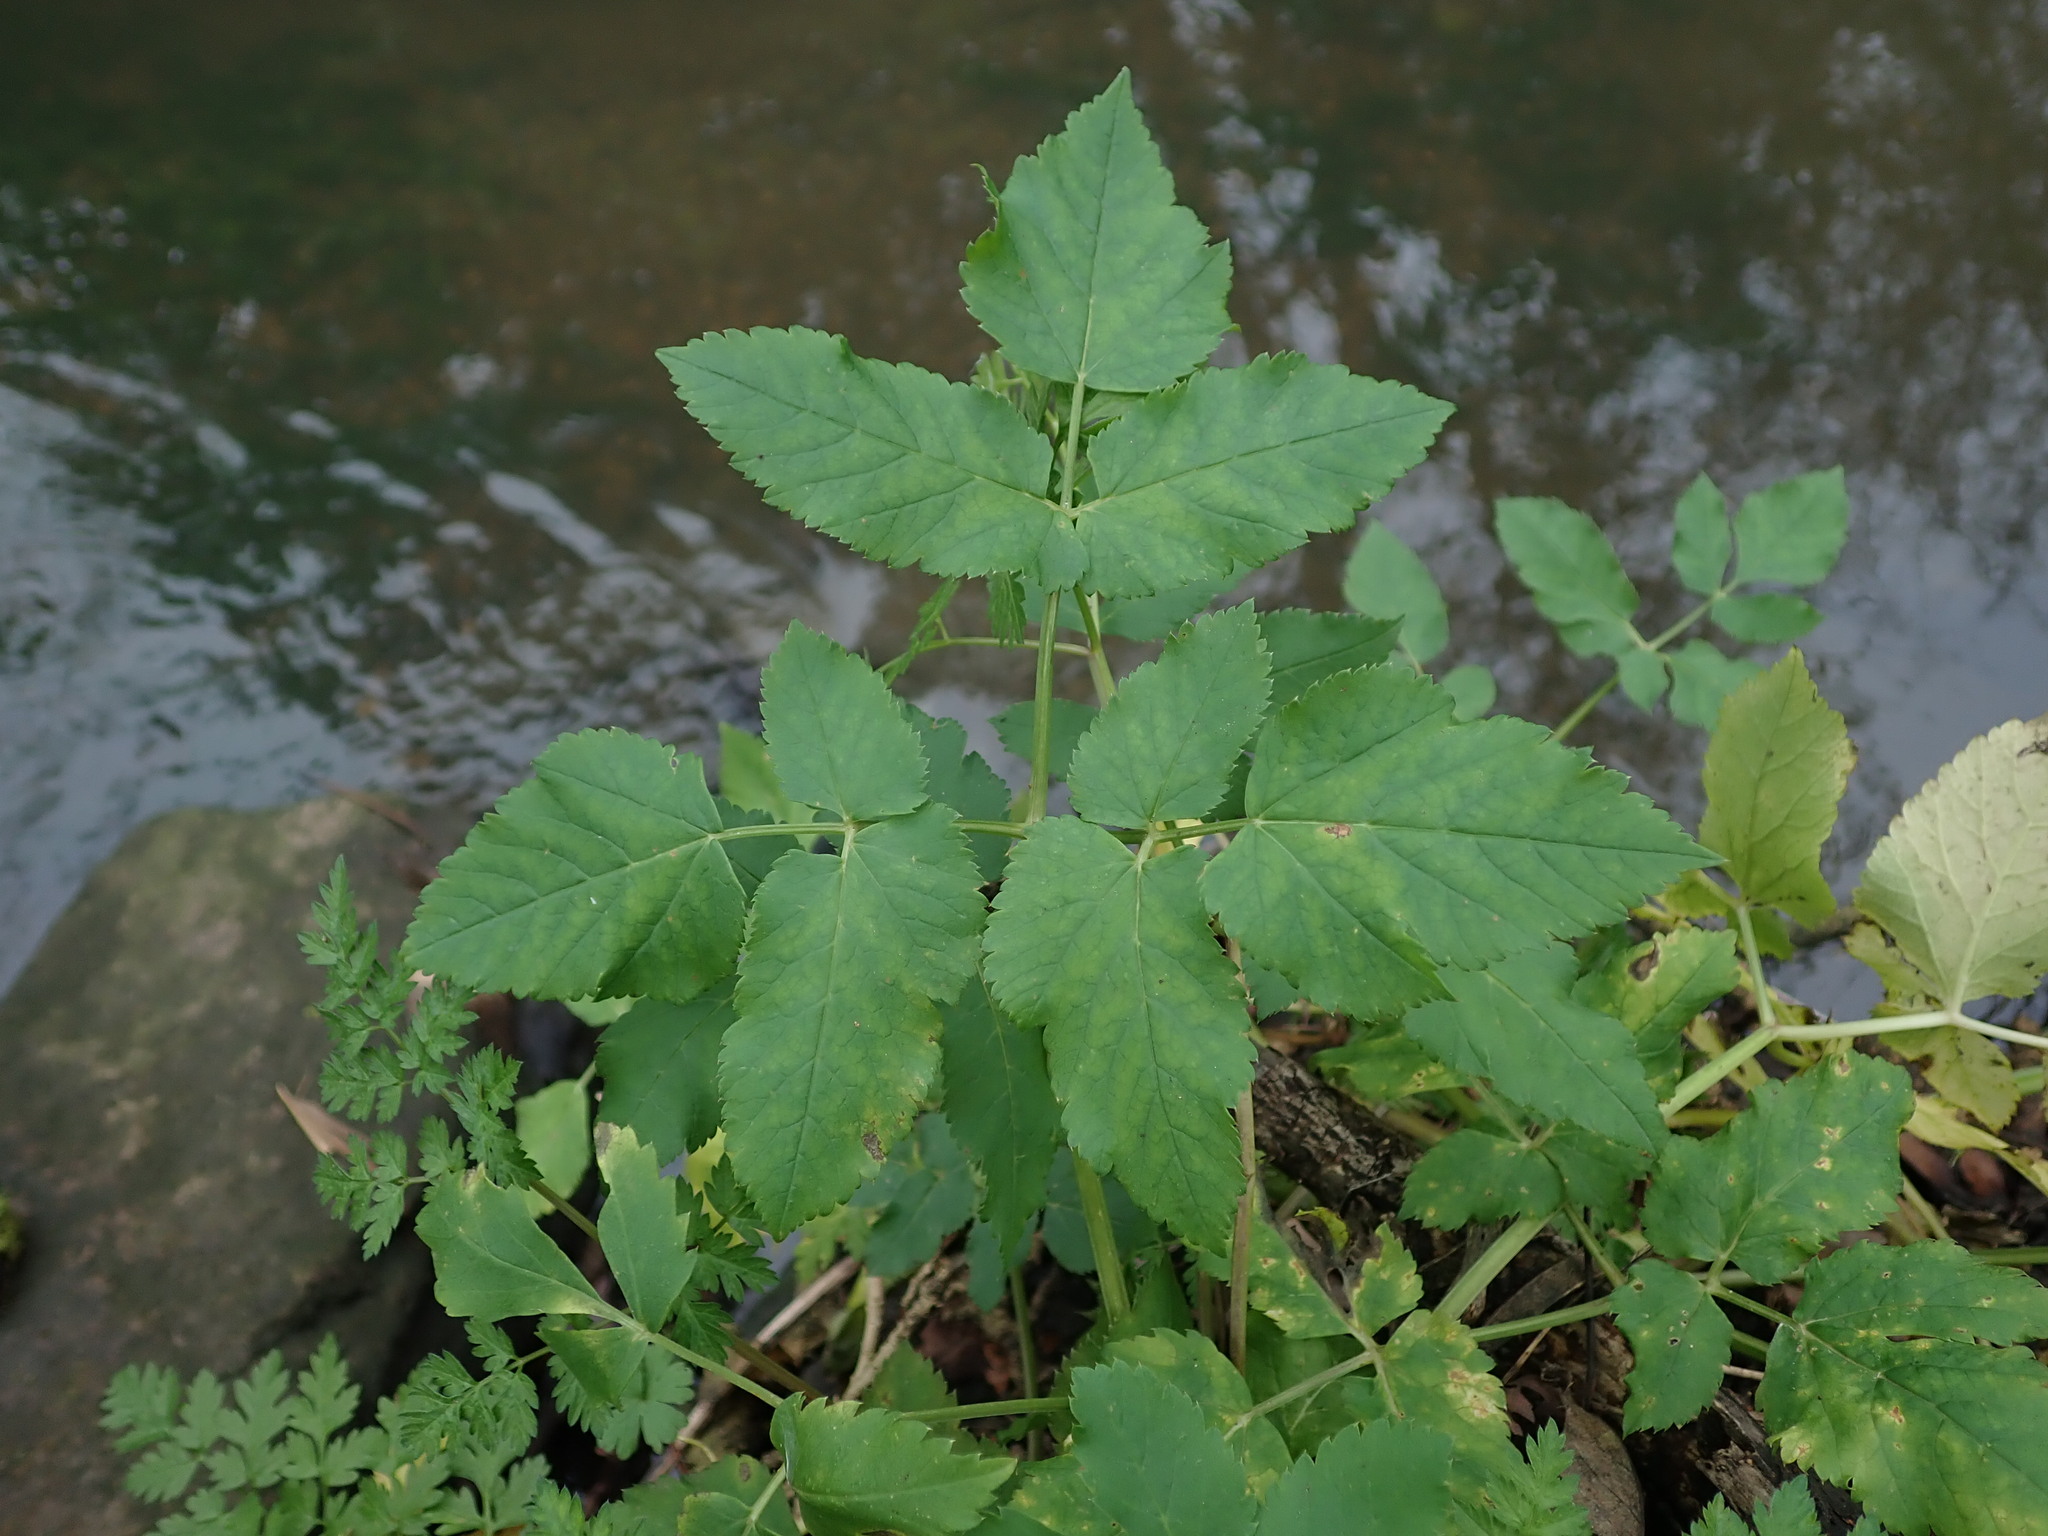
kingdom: Plantae
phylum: Tracheophyta
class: Magnoliopsida
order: Apiales
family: Apiaceae
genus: Aegopodium
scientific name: Aegopodium podagraria
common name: Ground-elder
